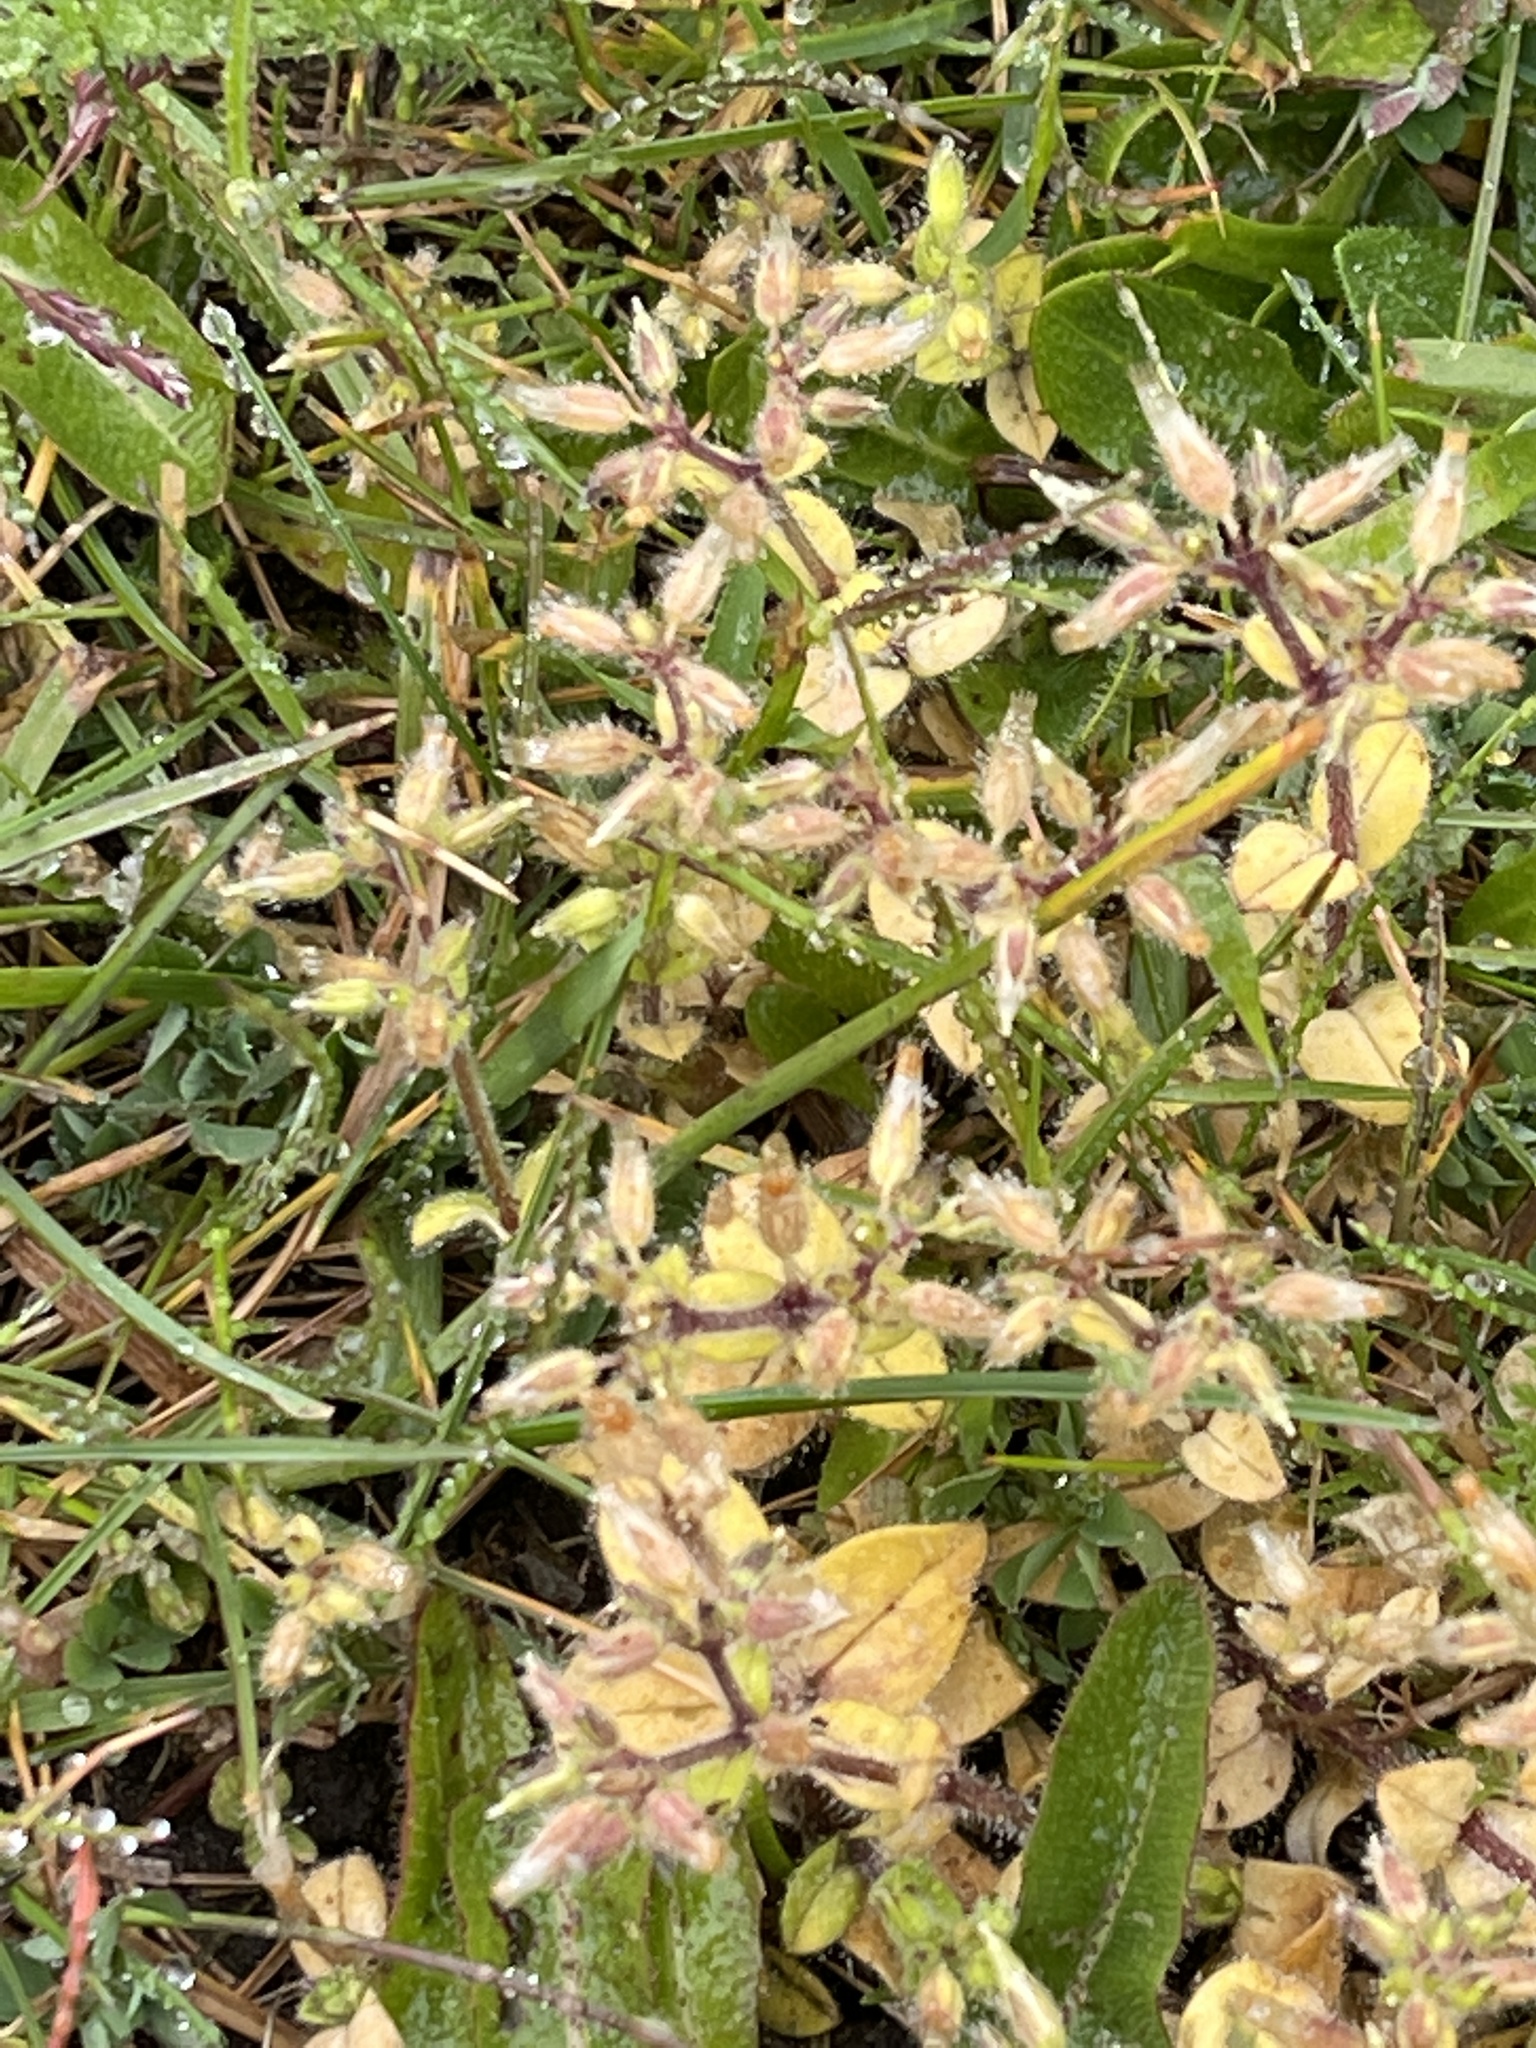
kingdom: Plantae
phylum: Tracheophyta
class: Magnoliopsida
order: Caryophyllales
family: Caryophyllaceae
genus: Cerastium
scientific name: Cerastium glomeratum
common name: Sticky chickweed
